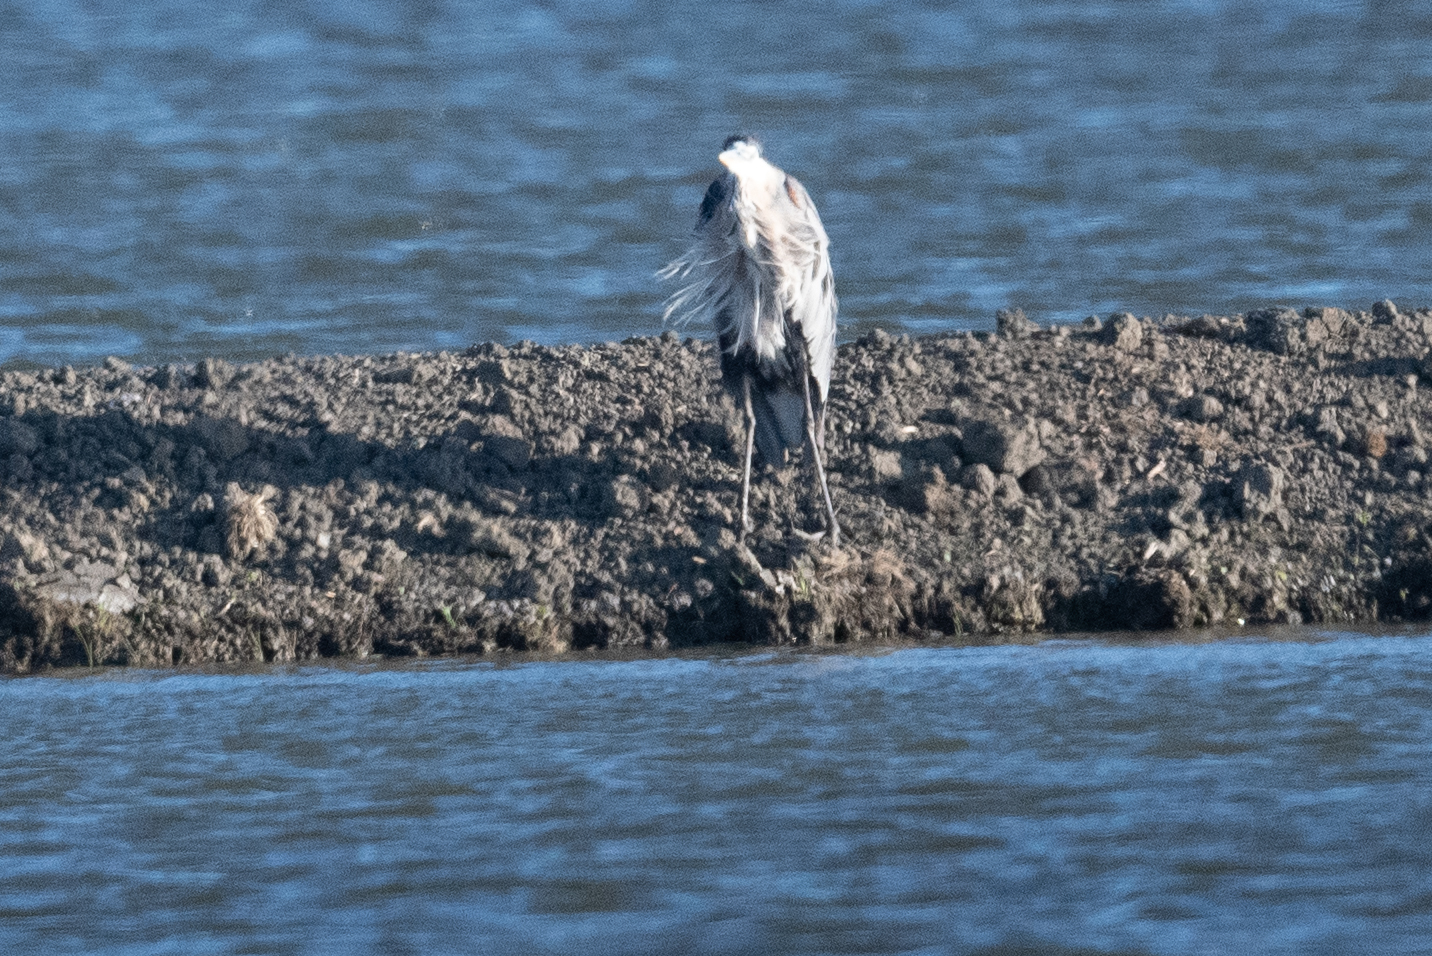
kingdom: Animalia
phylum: Chordata
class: Aves
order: Pelecaniformes
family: Ardeidae
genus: Ardea
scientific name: Ardea herodias
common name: Great blue heron
